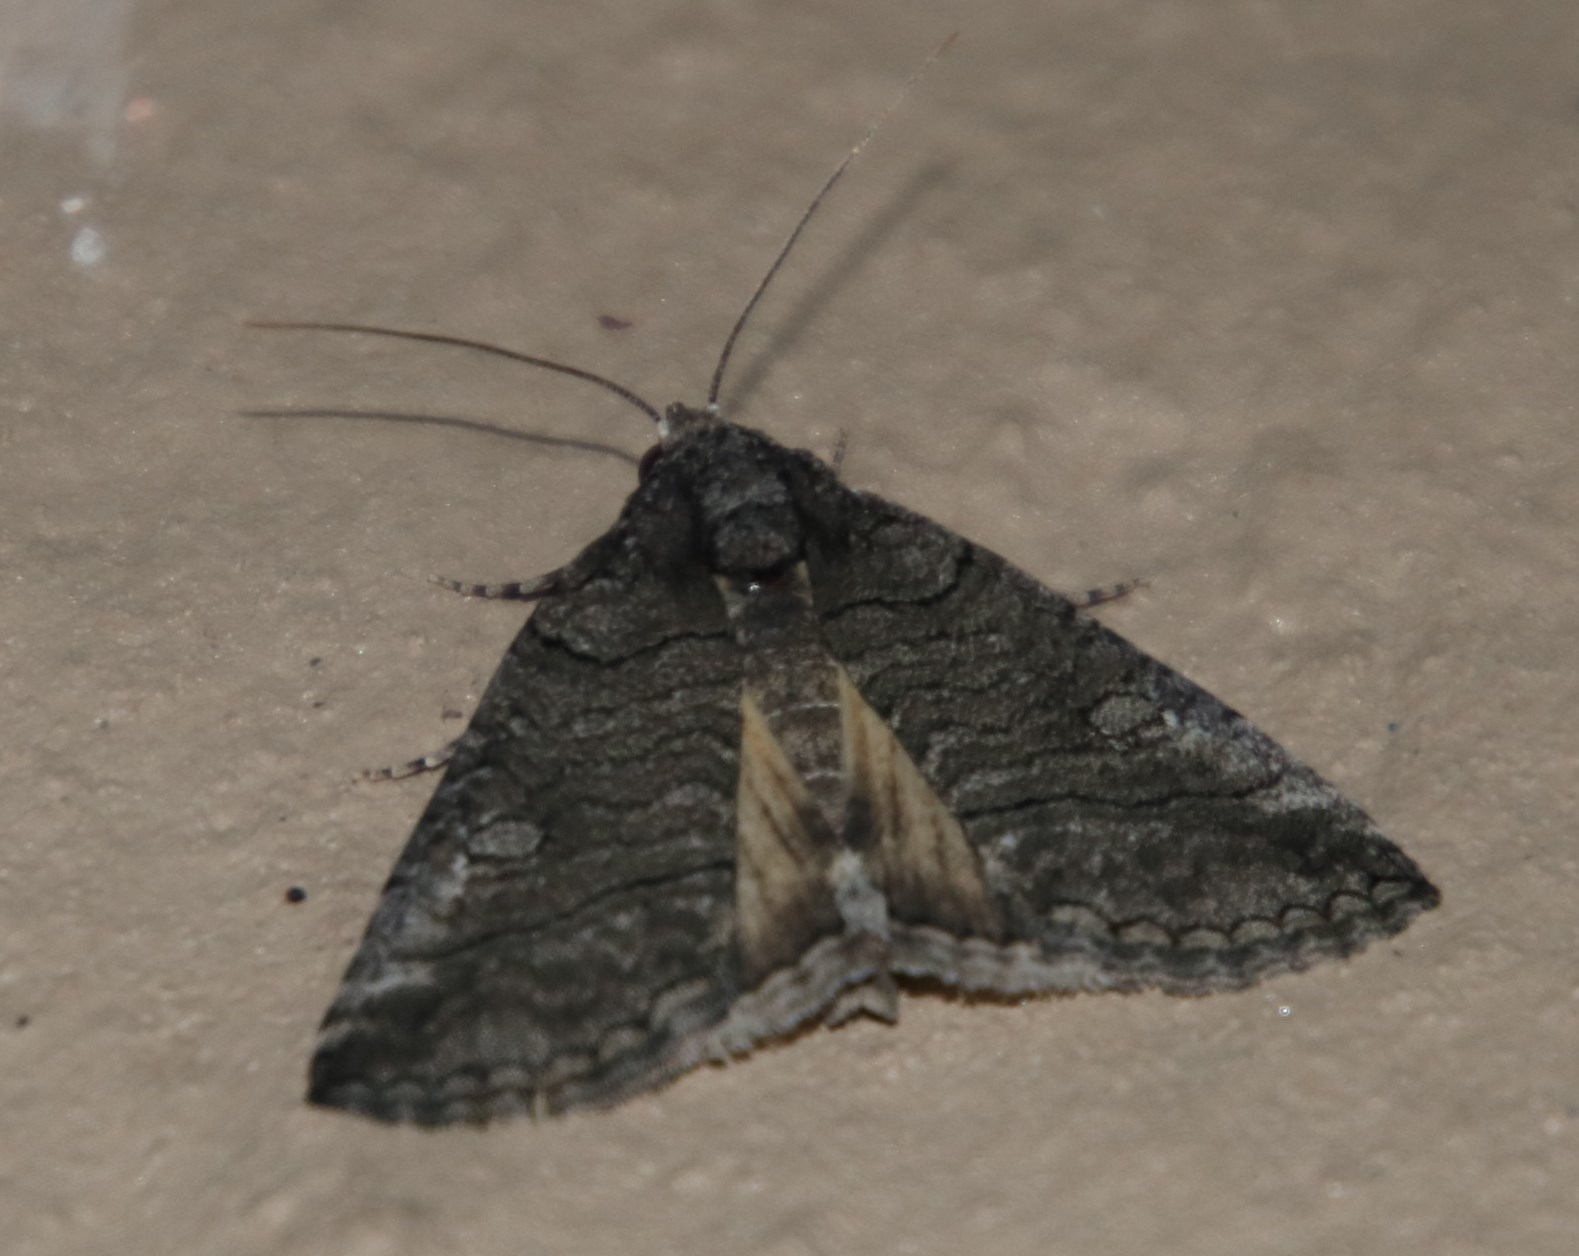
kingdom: Animalia
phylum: Arthropoda
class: Insecta
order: Lepidoptera
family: Erebidae
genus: Pericyma
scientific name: Pericyma atrifusa
